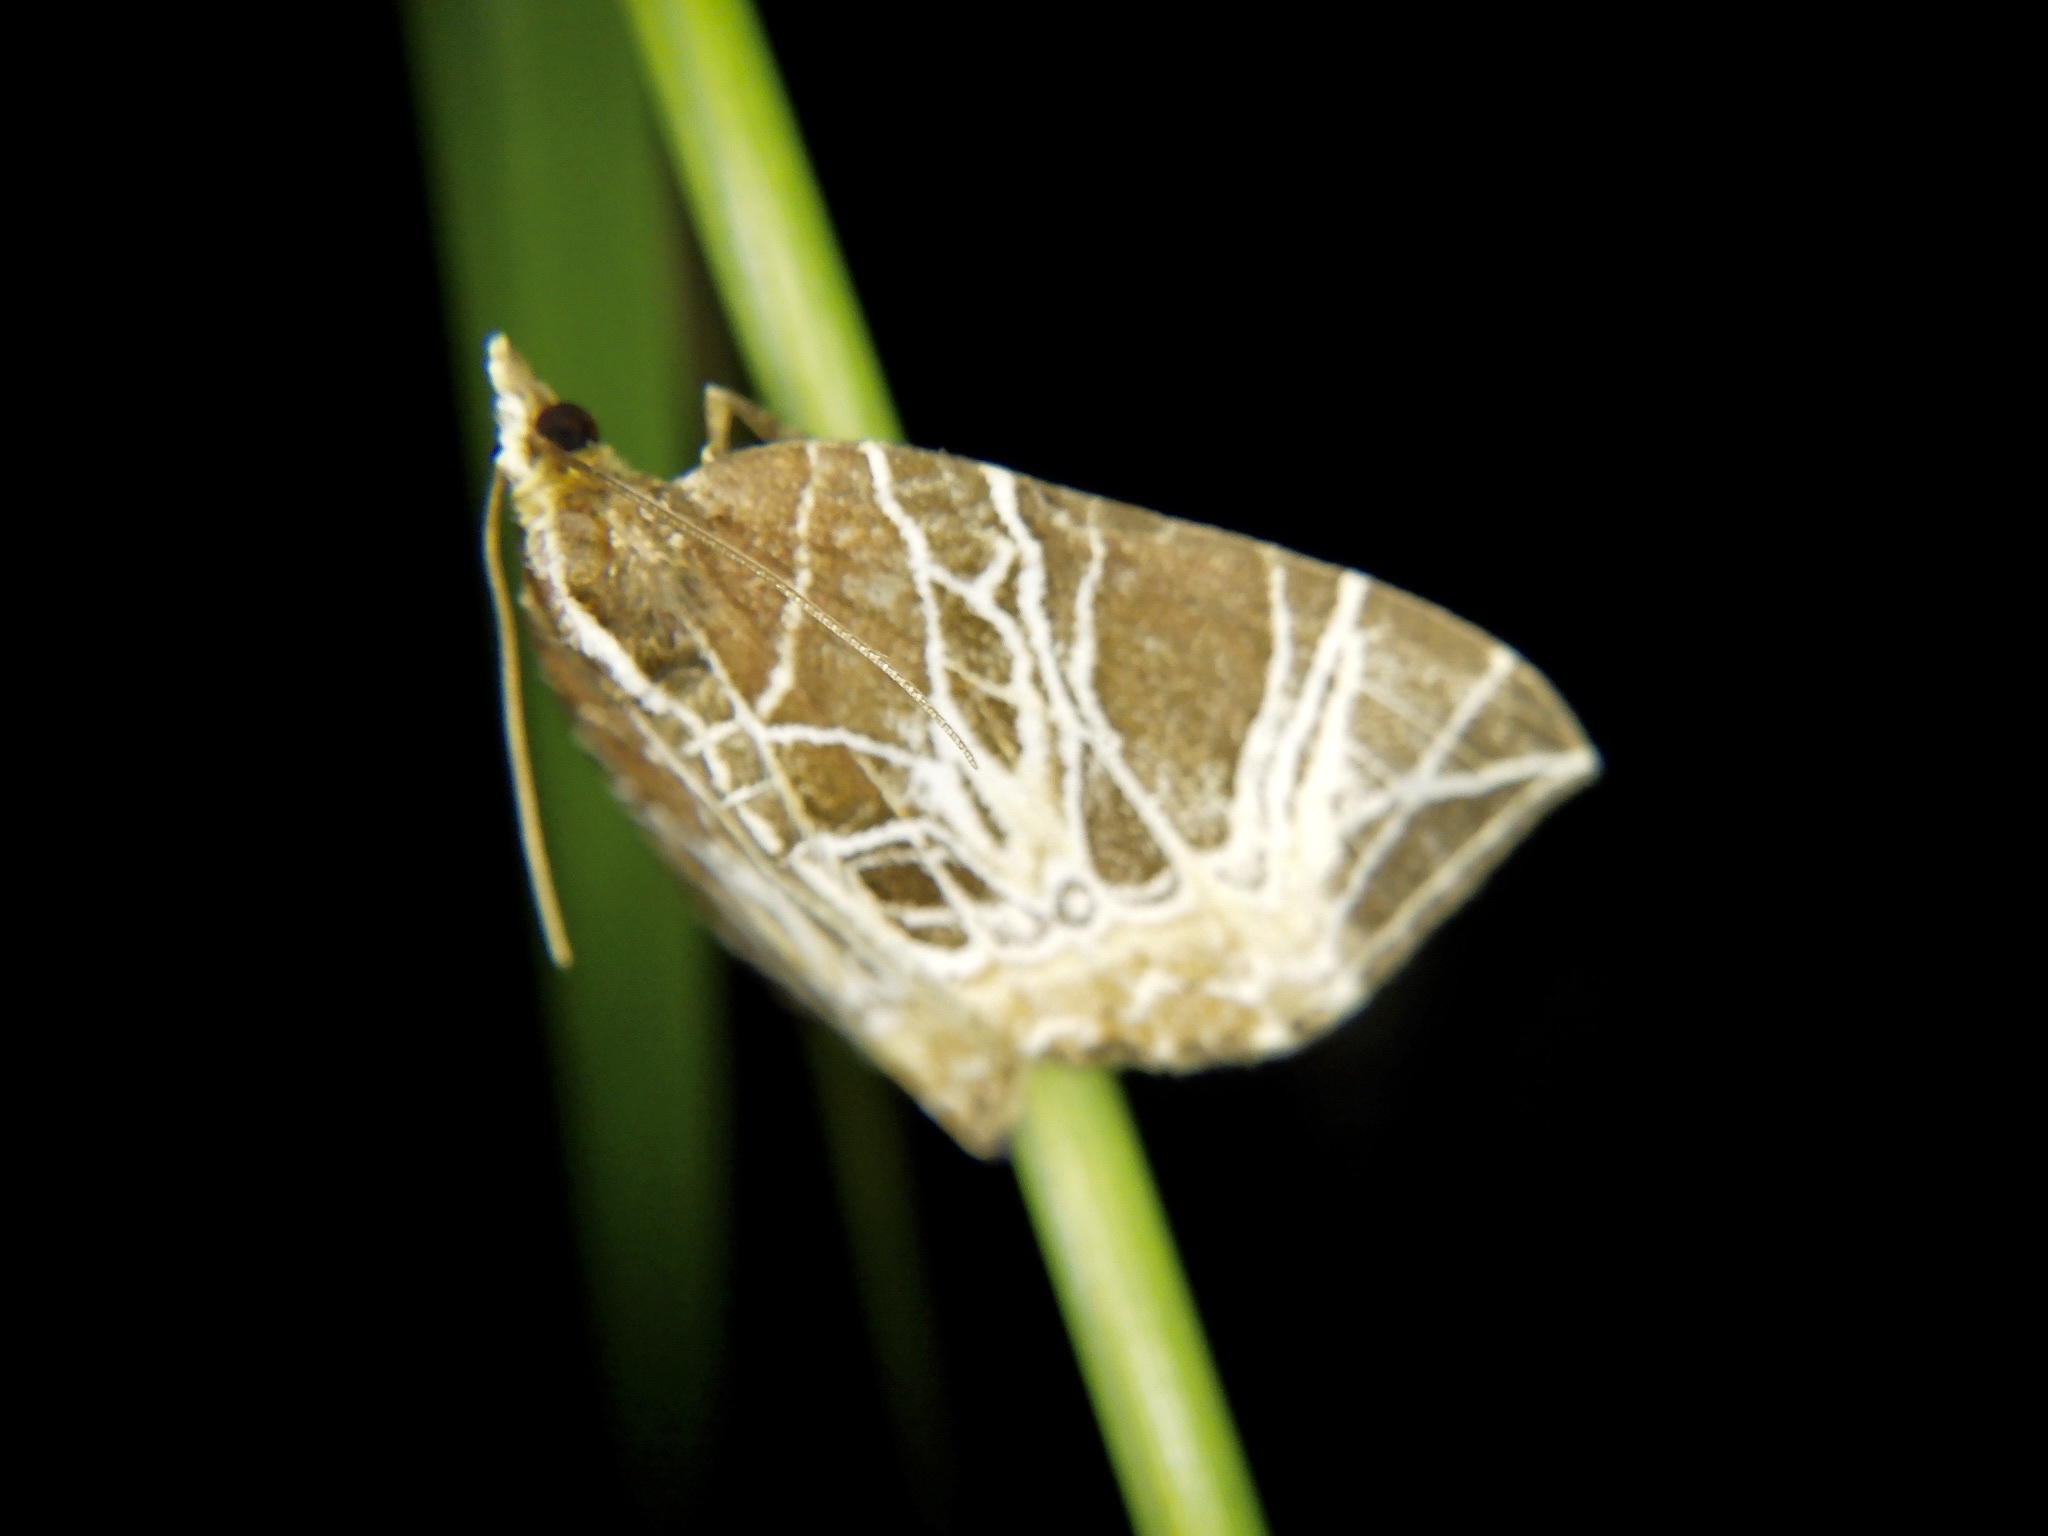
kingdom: Animalia
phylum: Arthropoda
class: Insecta
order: Lepidoptera
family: Geometridae
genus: Evecliptopera
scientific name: Evecliptopera illitata
